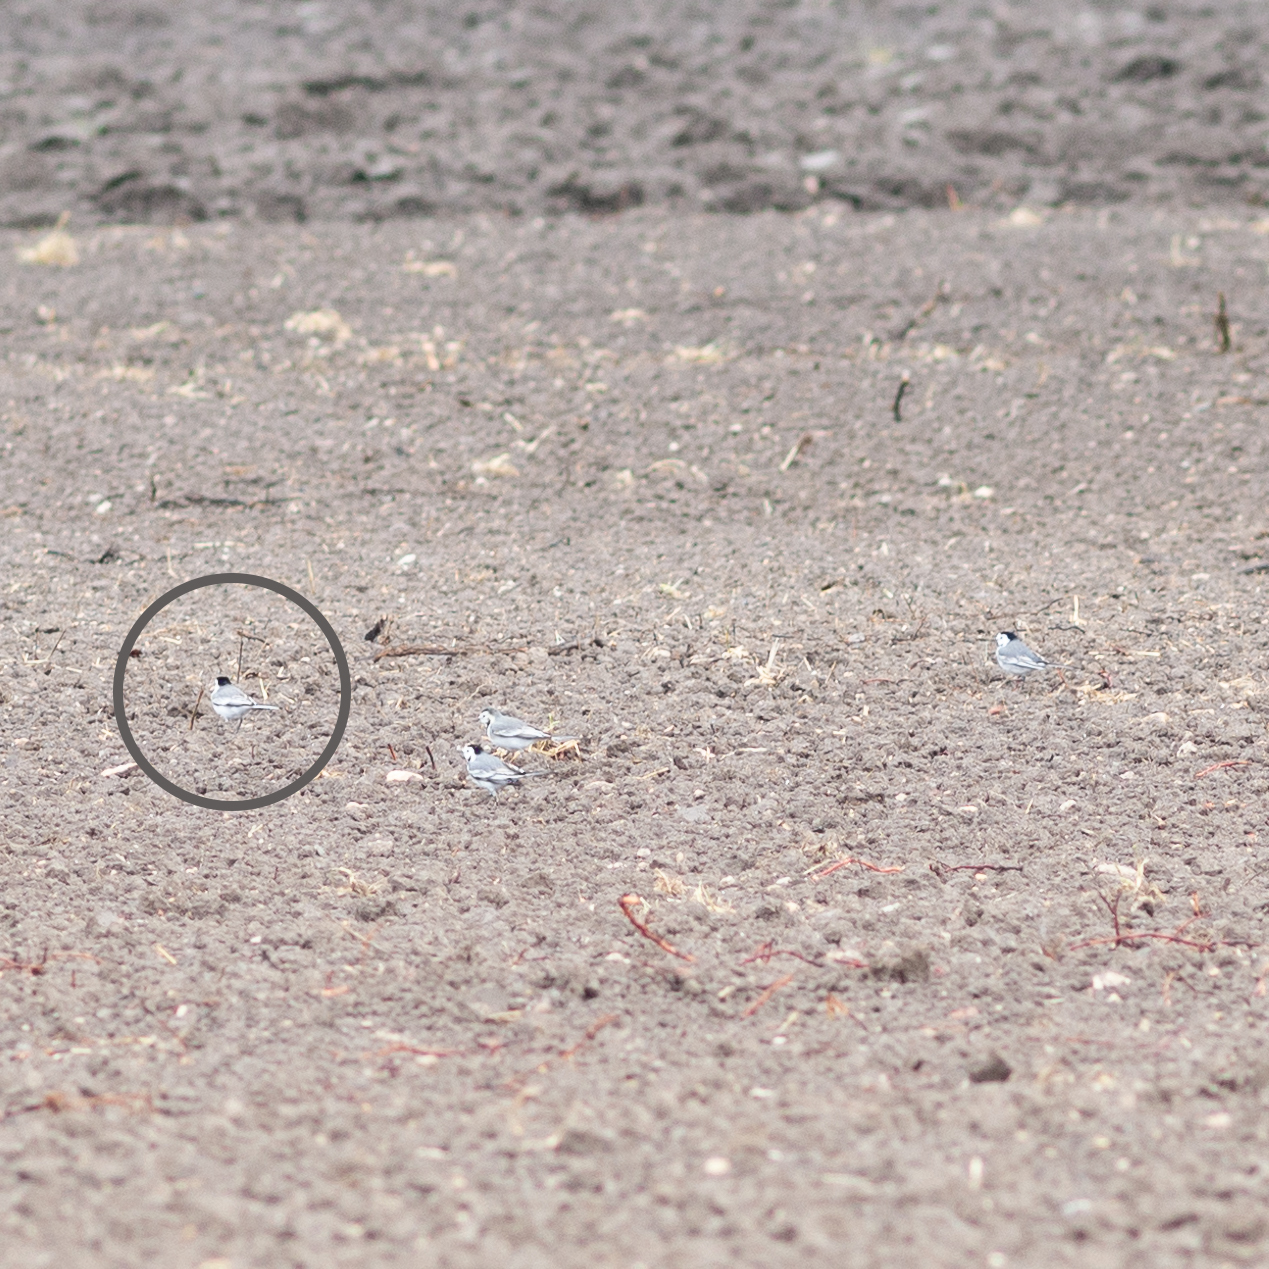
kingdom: Animalia
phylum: Chordata
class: Aves
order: Passeriformes
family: Motacillidae
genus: Motacilla
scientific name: Motacilla alba
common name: White wagtail
